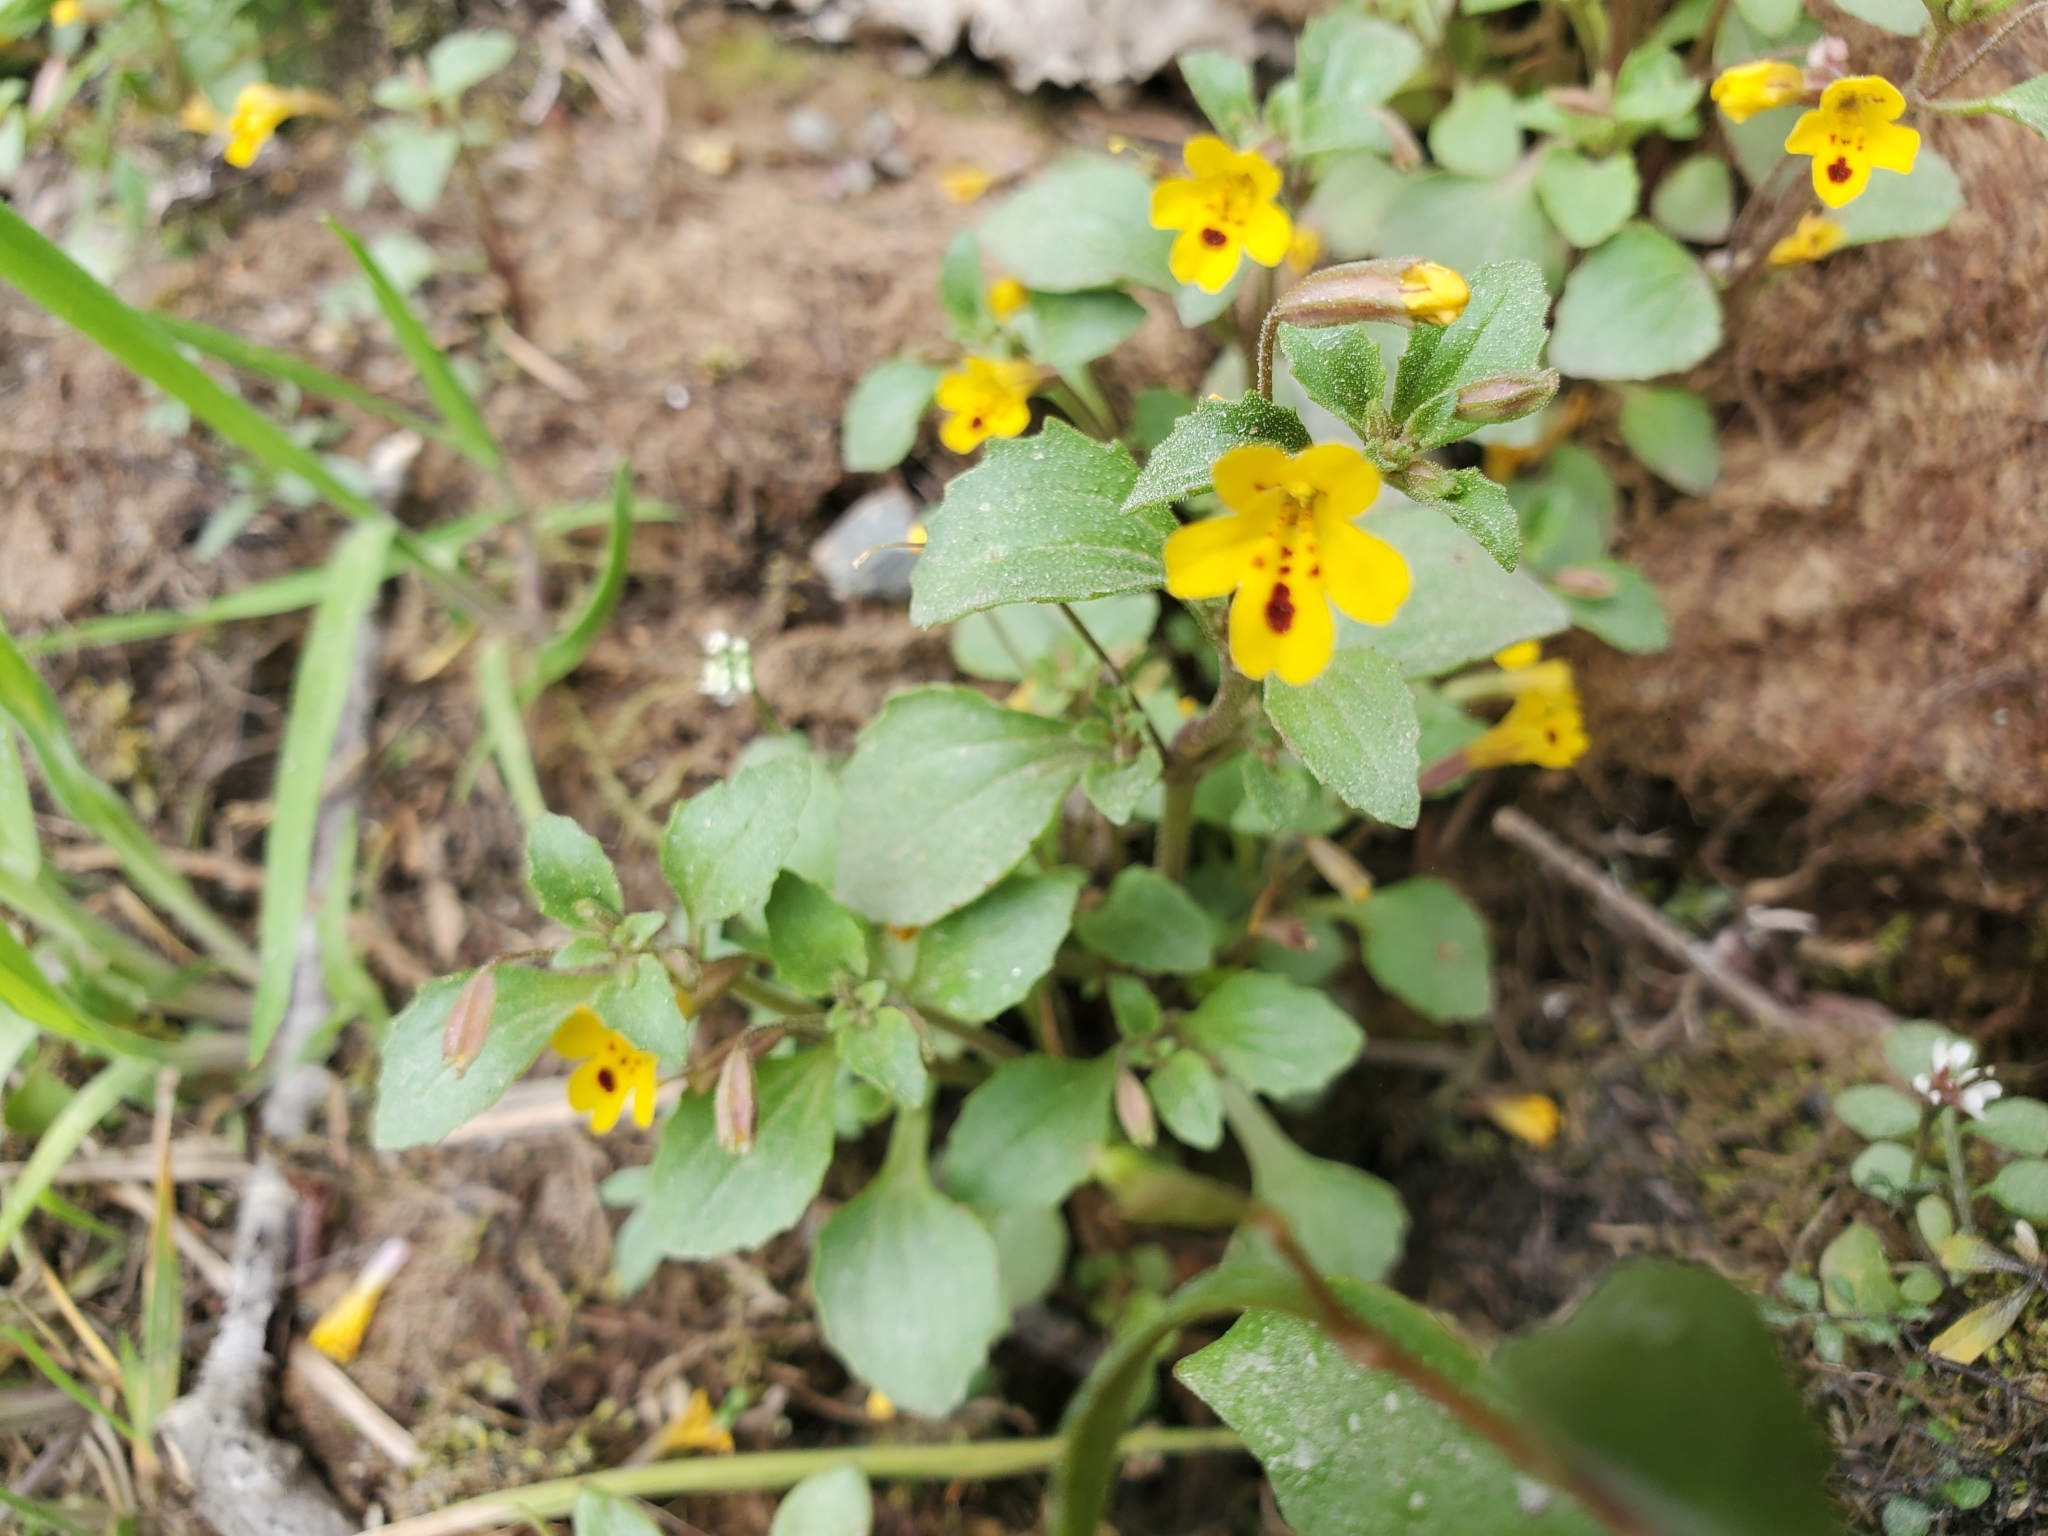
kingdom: Plantae
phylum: Tracheophyta
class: Magnoliopsida
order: Lamiales
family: Phrymaceae
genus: Erythranthe
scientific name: Erythranthe alsinoides
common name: Chickweed monkeyflower
